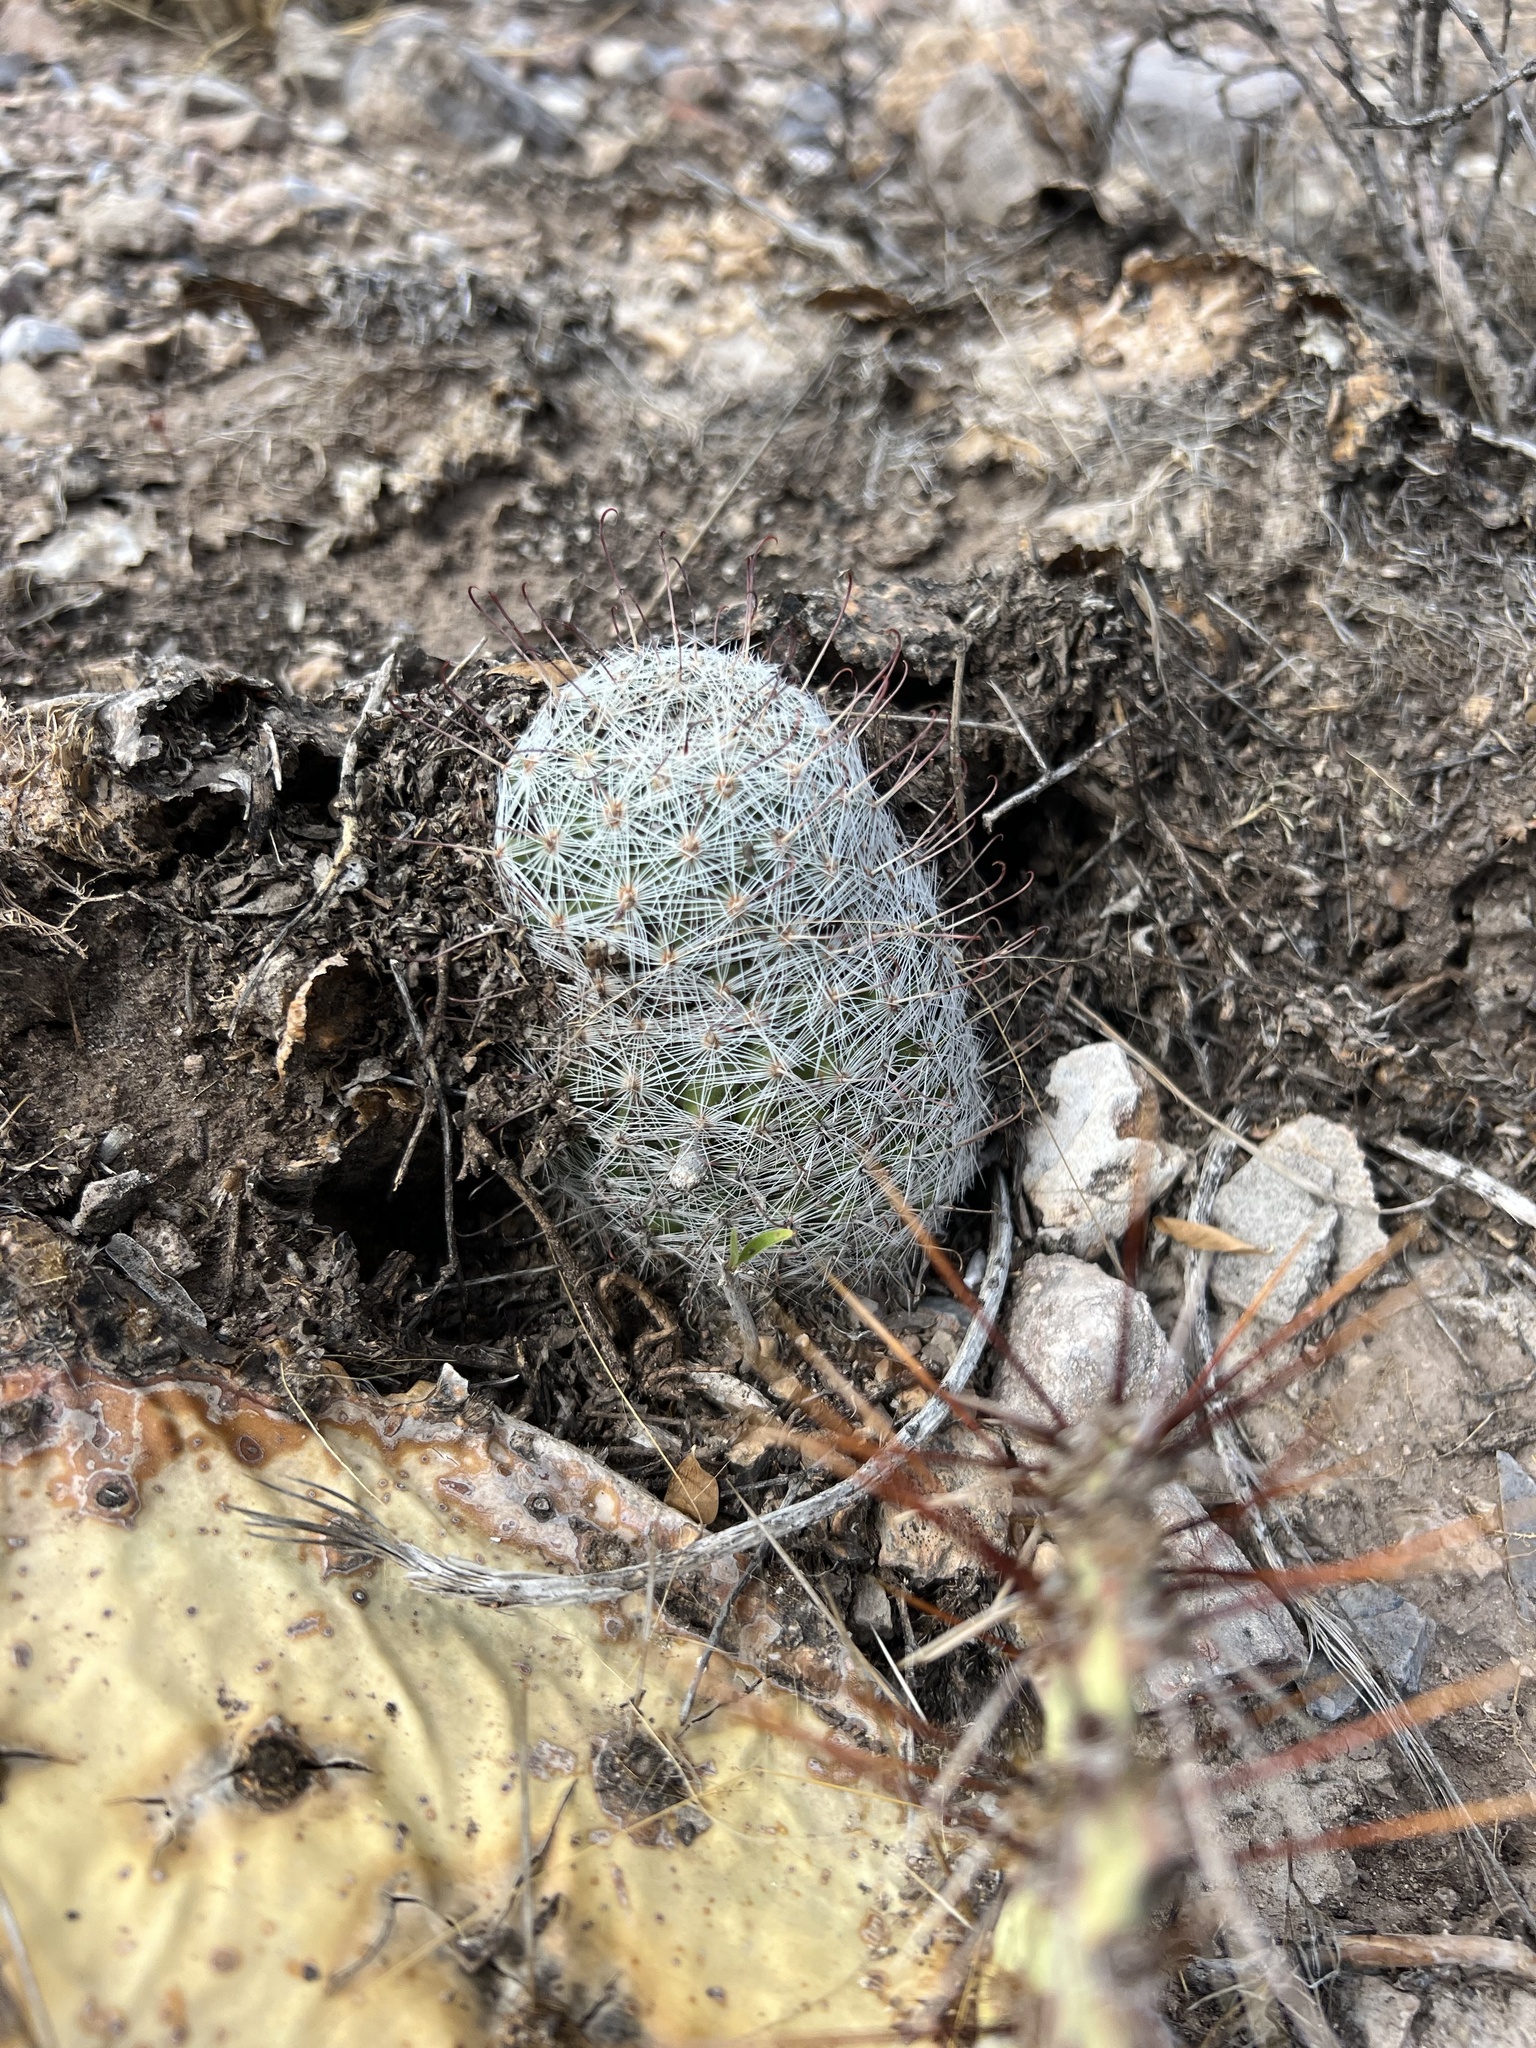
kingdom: Plantae
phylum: Tracheophyta
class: Magnoliopsida
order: Caryophyllales
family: Cactaceae
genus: Cochemiea
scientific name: Cochemiea grahamii
